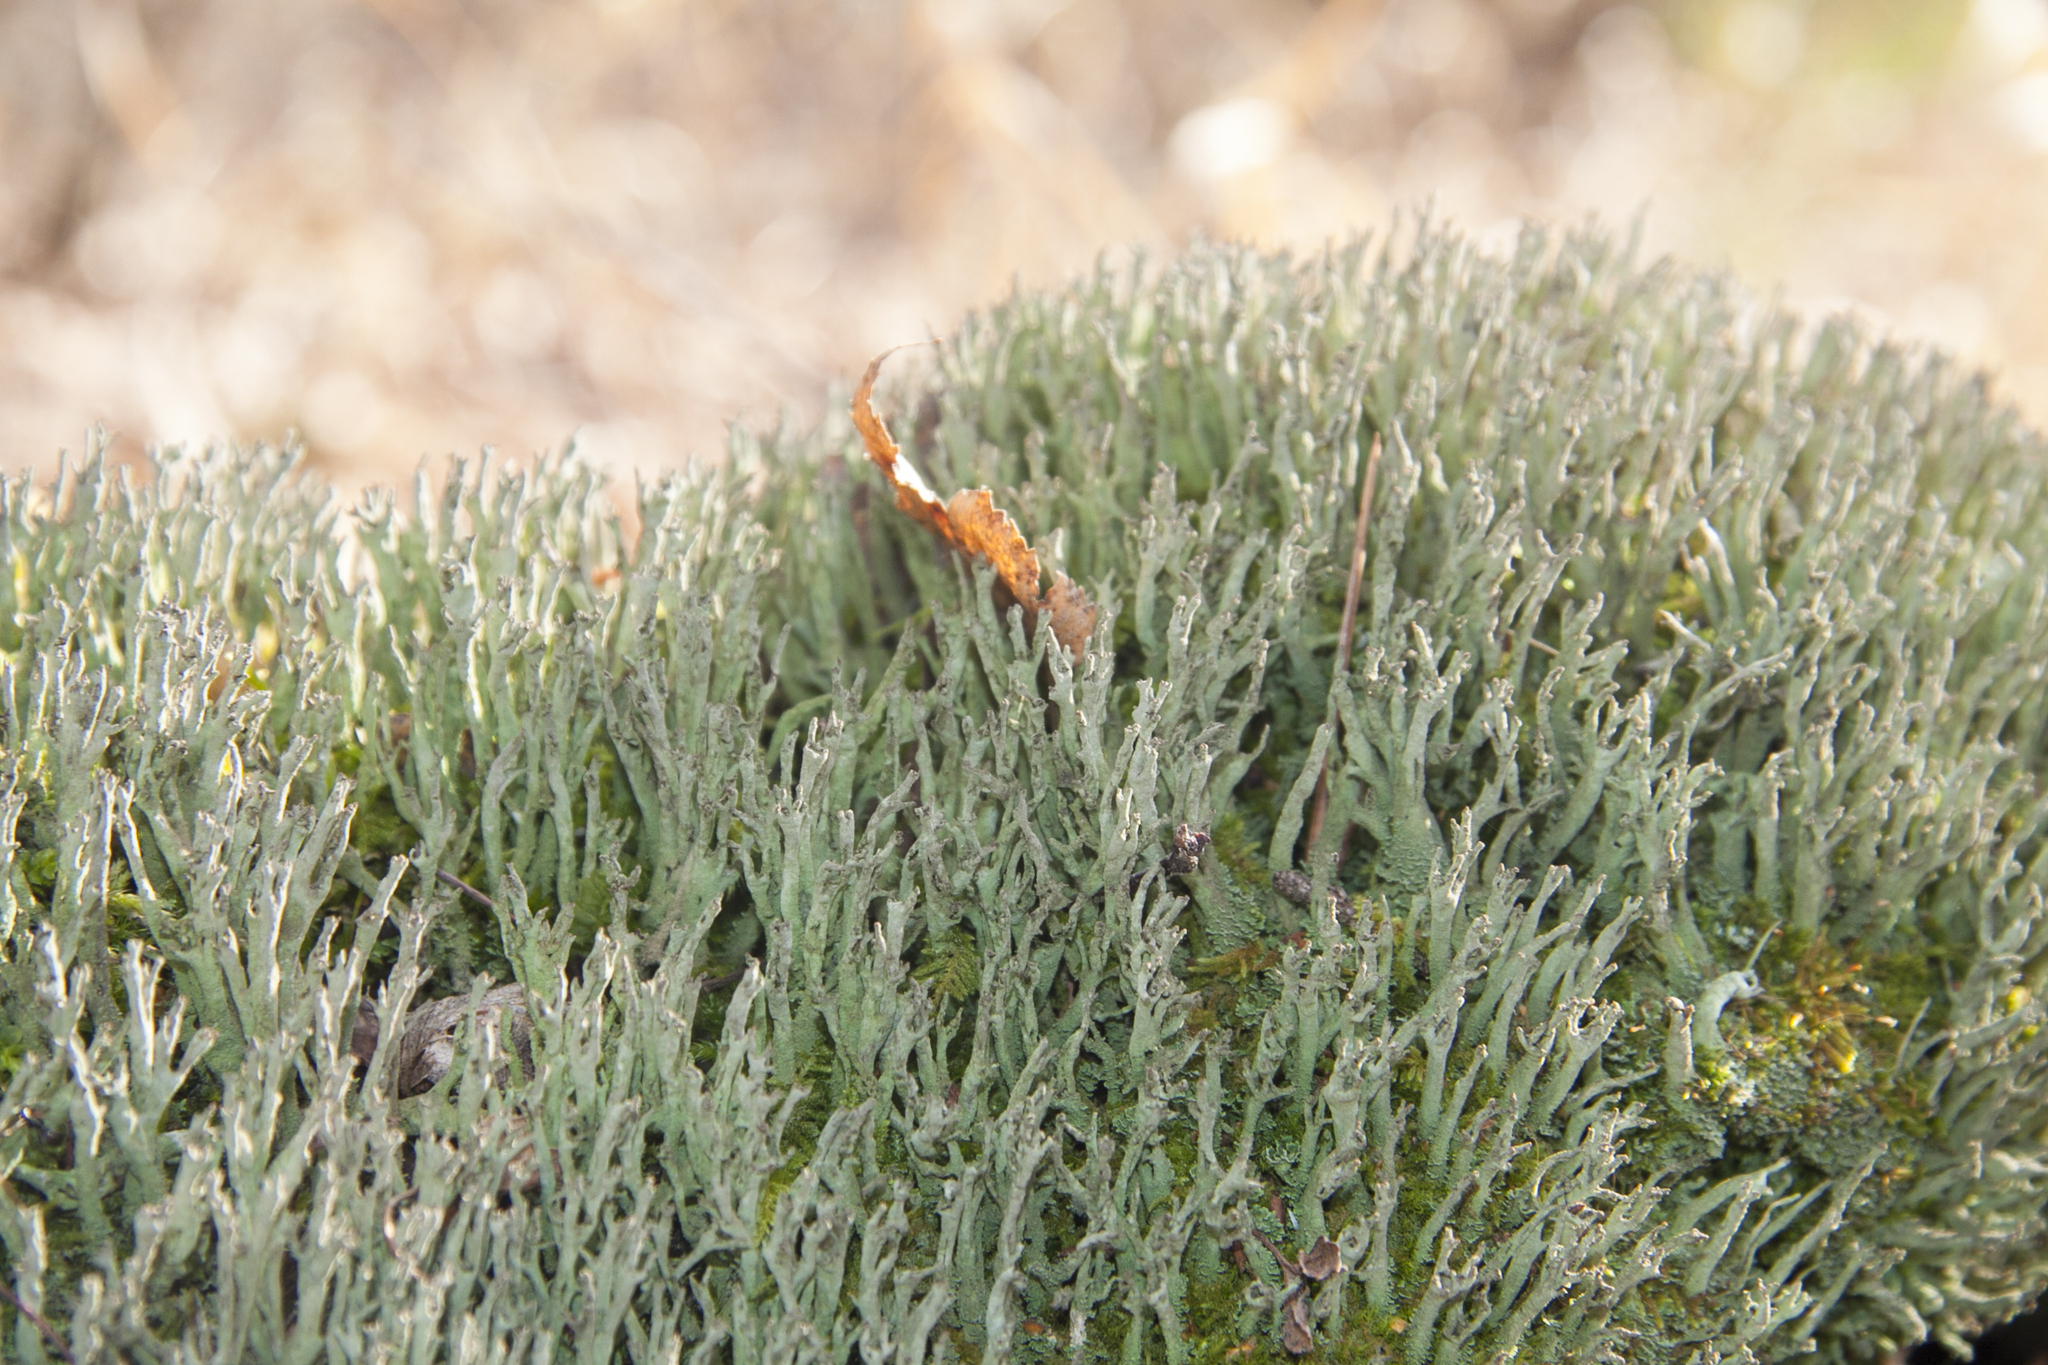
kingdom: Fungi
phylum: Ascomycota
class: Lecanoromycetes
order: Lecanorales
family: Cladoniaceae
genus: Cladonia
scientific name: Cladonia cenotea
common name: Powdered funnel lichen
